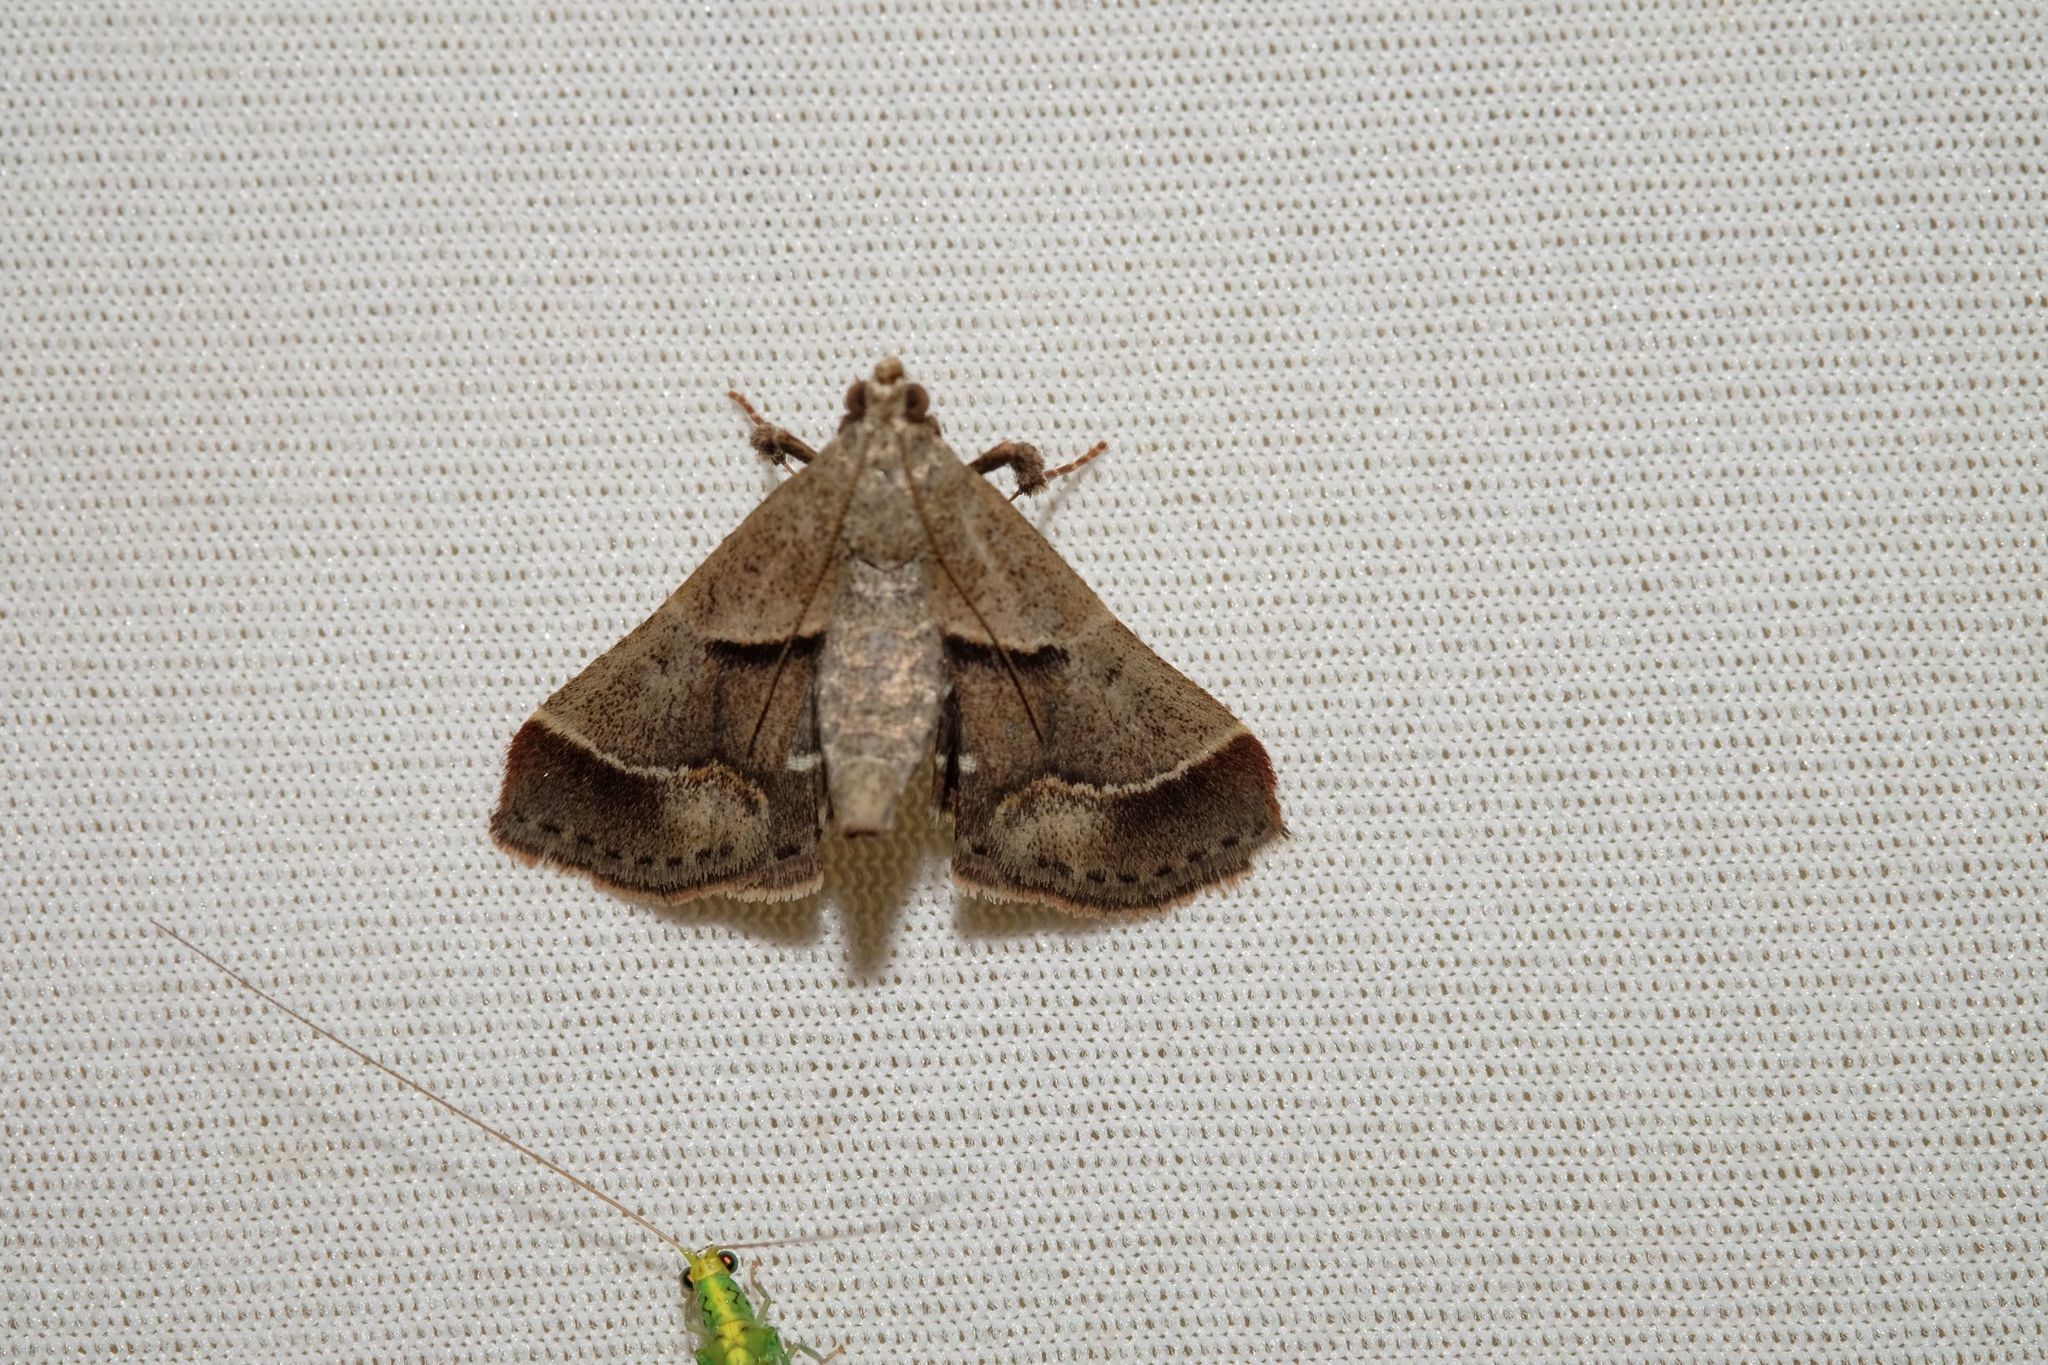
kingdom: Animalia
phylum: Arthropoda
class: Insecta
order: Lepidoptera
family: Pyralidae
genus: Gauna
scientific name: Gauna aegusalis
